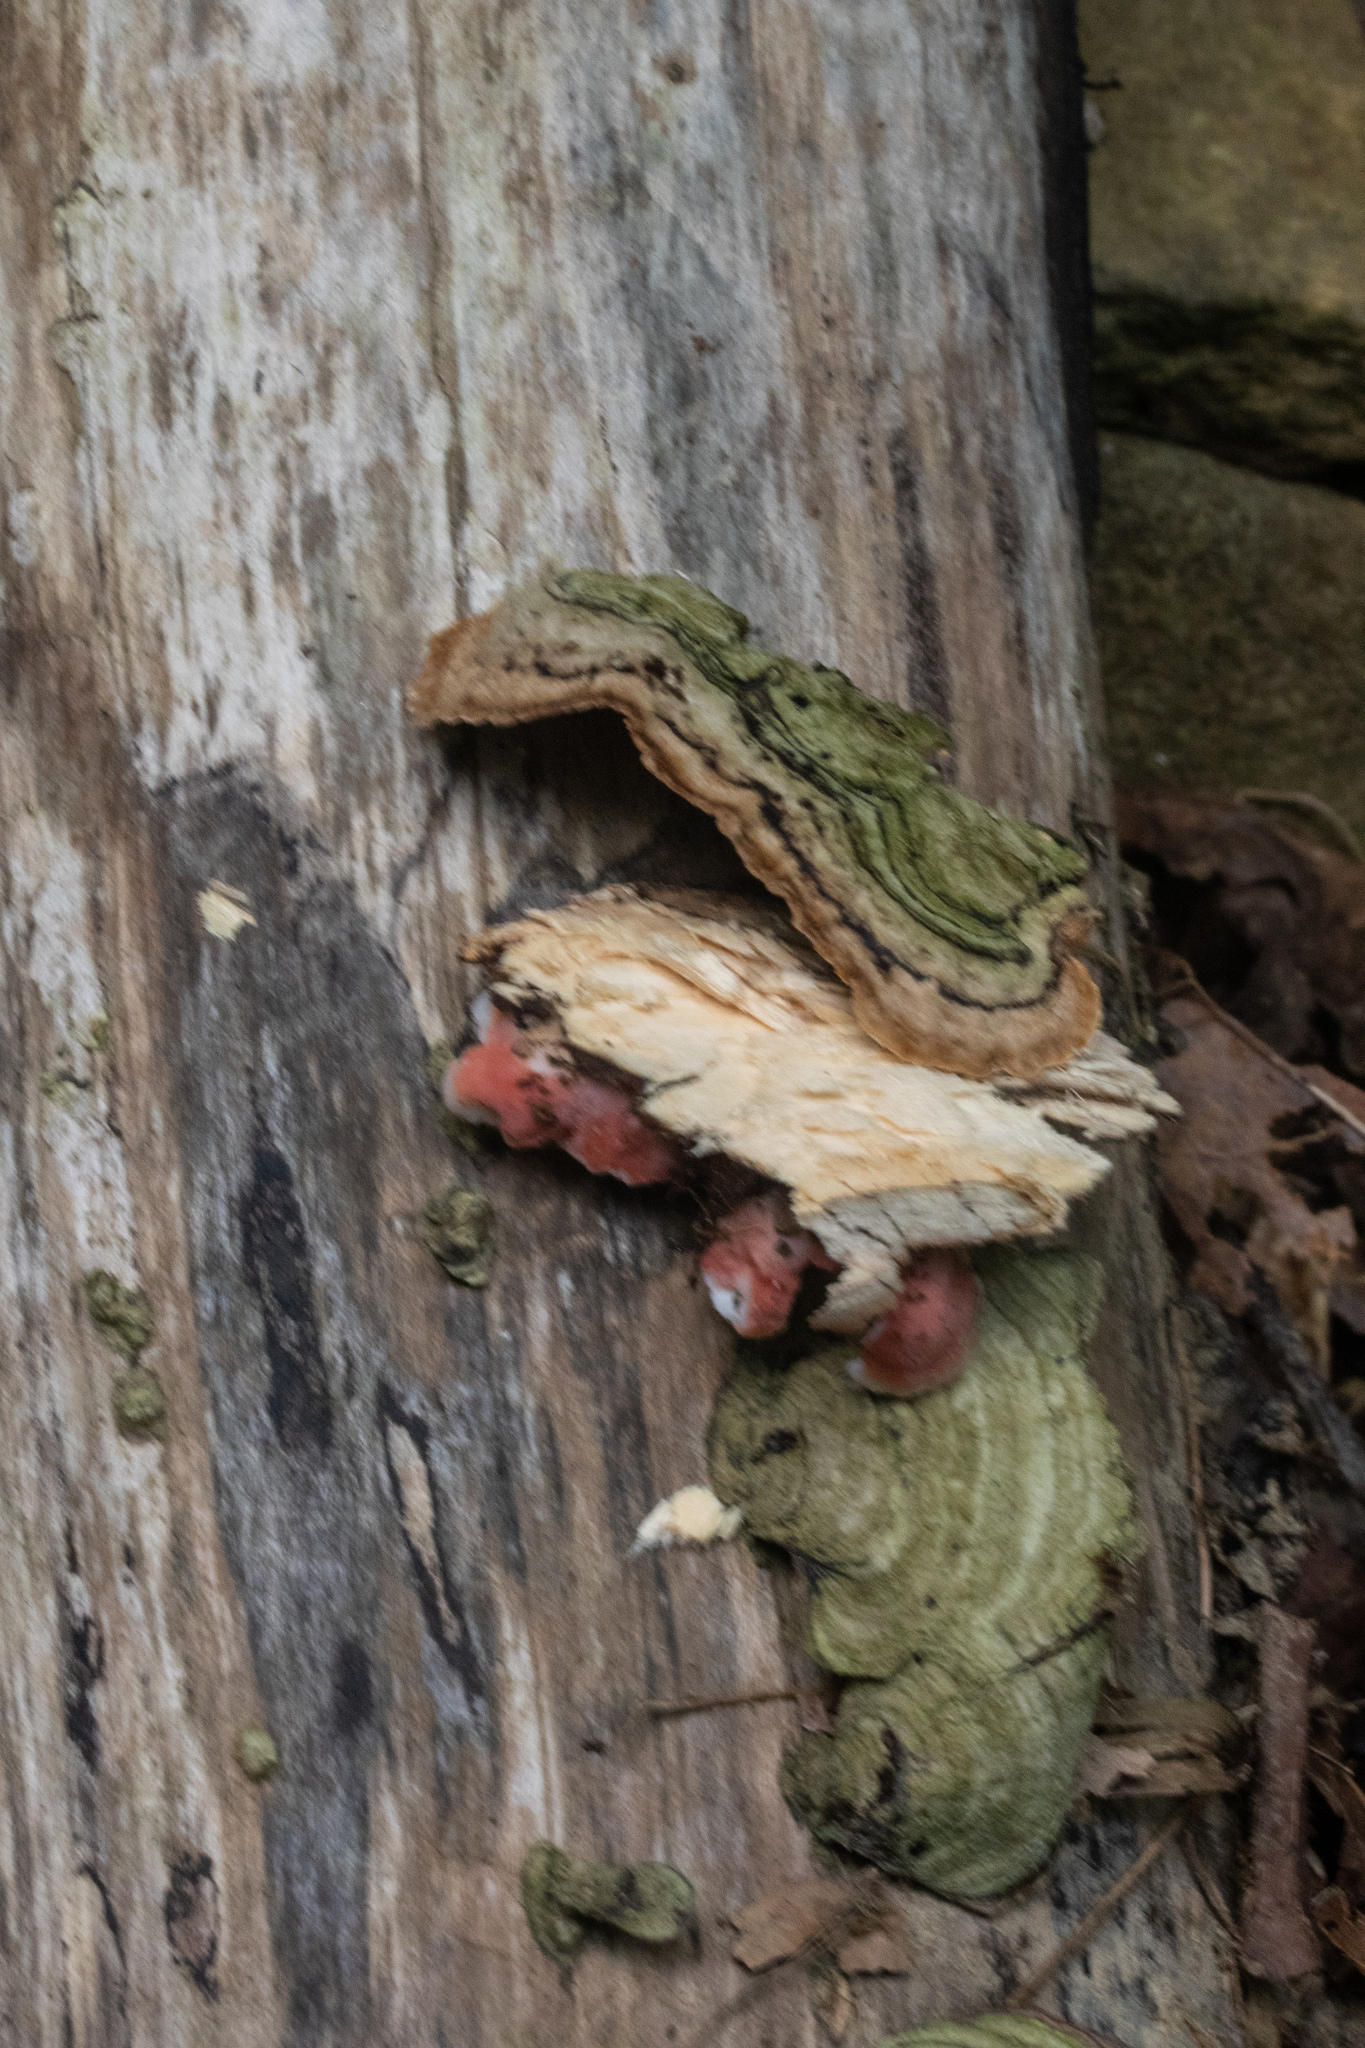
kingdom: Fungi
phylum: Basidiomycota
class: Agaricomycetes
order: Polyporales
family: Irpicaceae
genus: Byssomerulius
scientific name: Byssomerulius incarnatus
